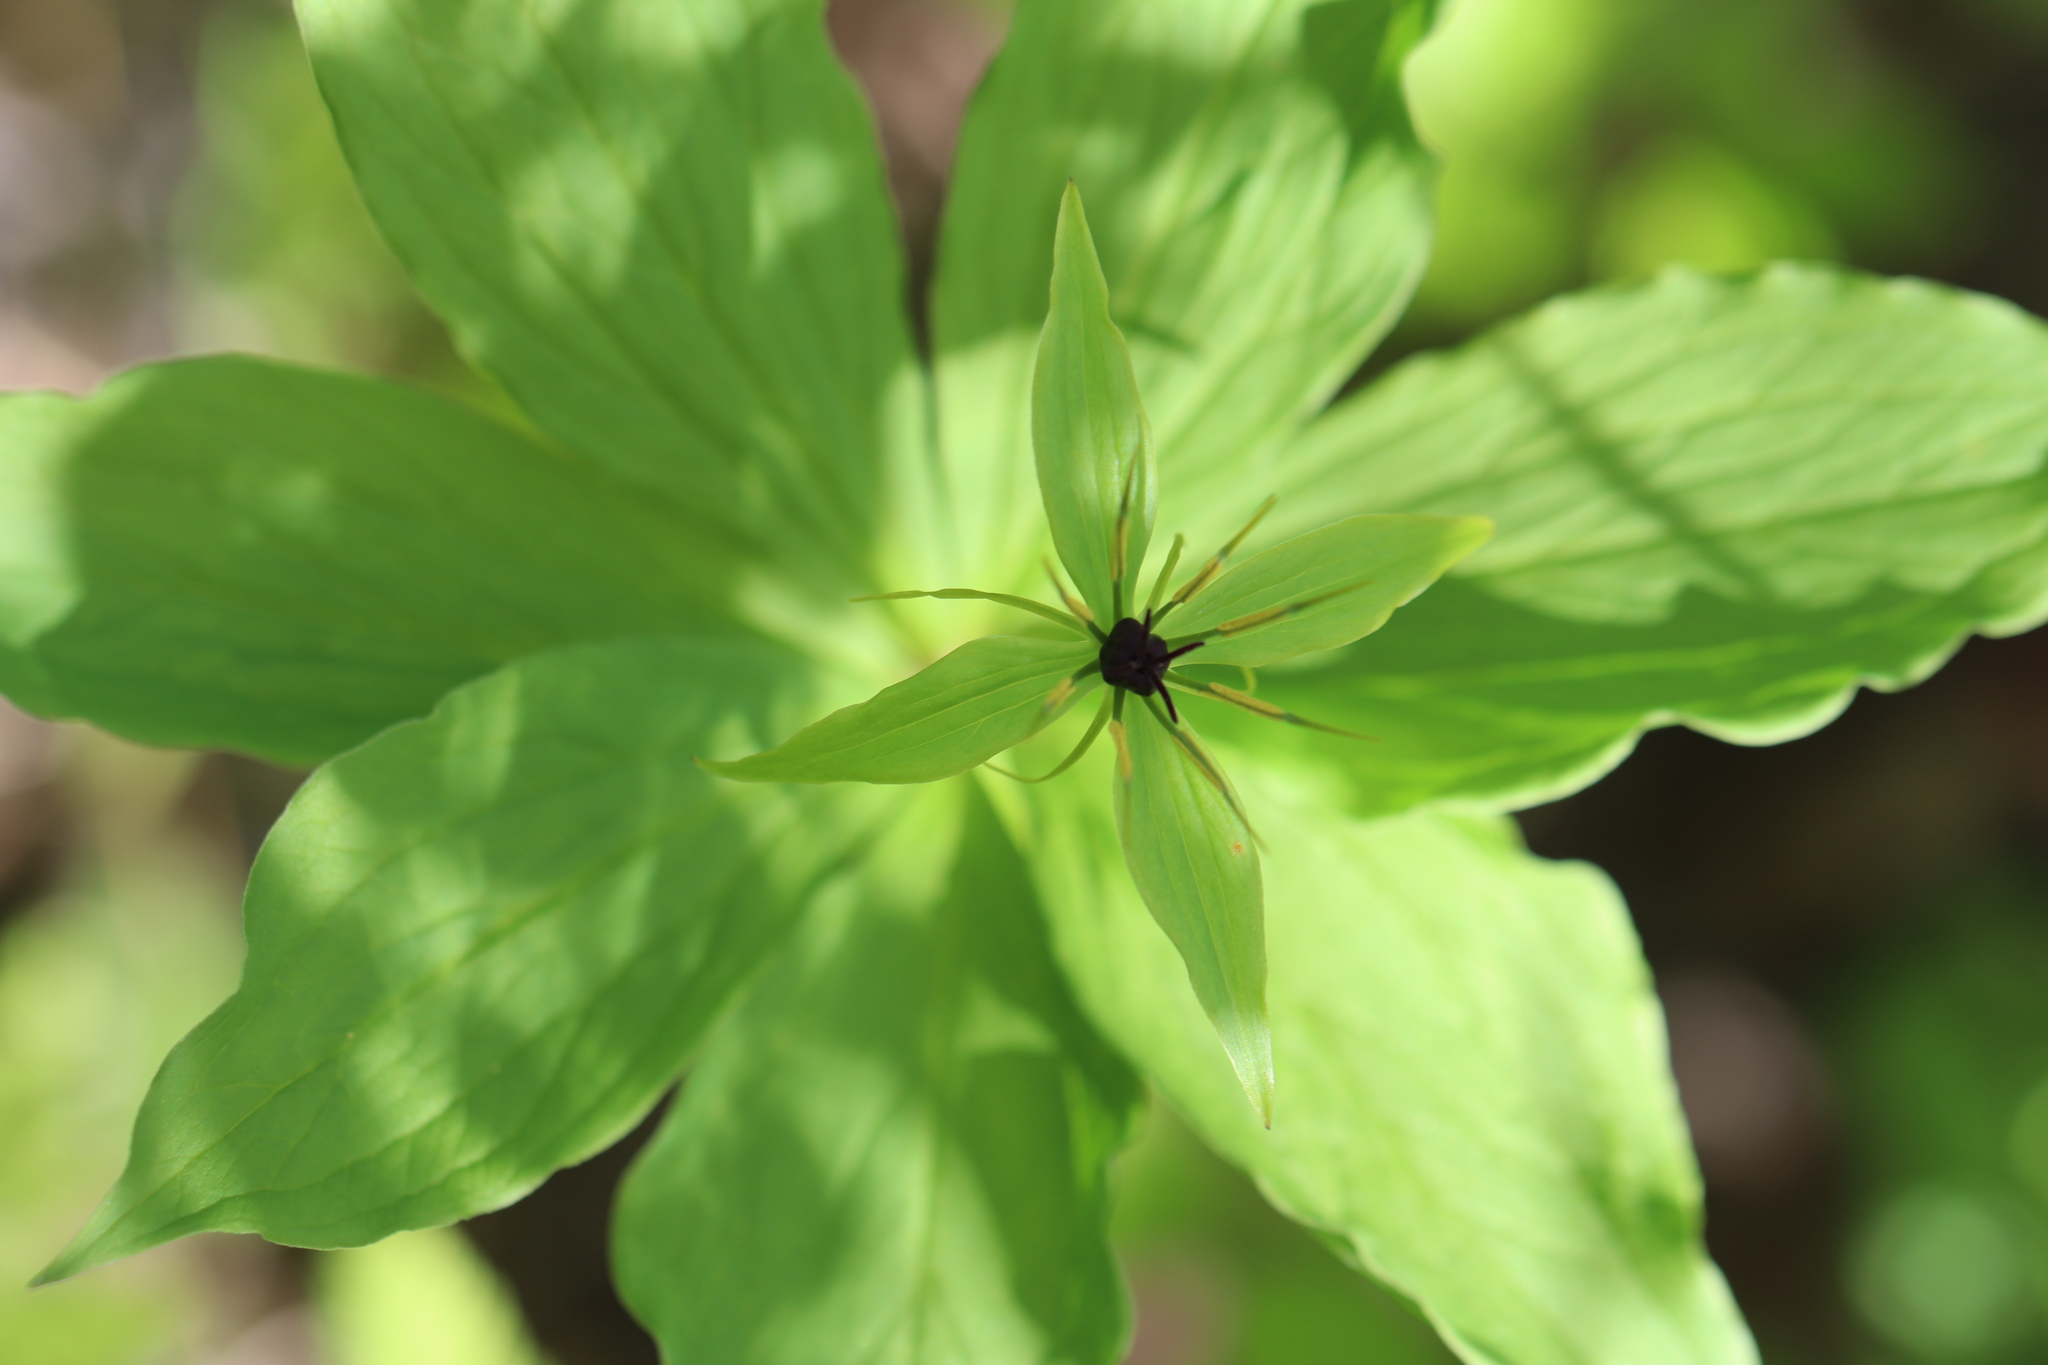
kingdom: Plantae
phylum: Tracheophyta
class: Liliopsida
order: Liliales
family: Melanthiaceae
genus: Paris
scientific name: Paris quadrifolia
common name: Herb-paris
